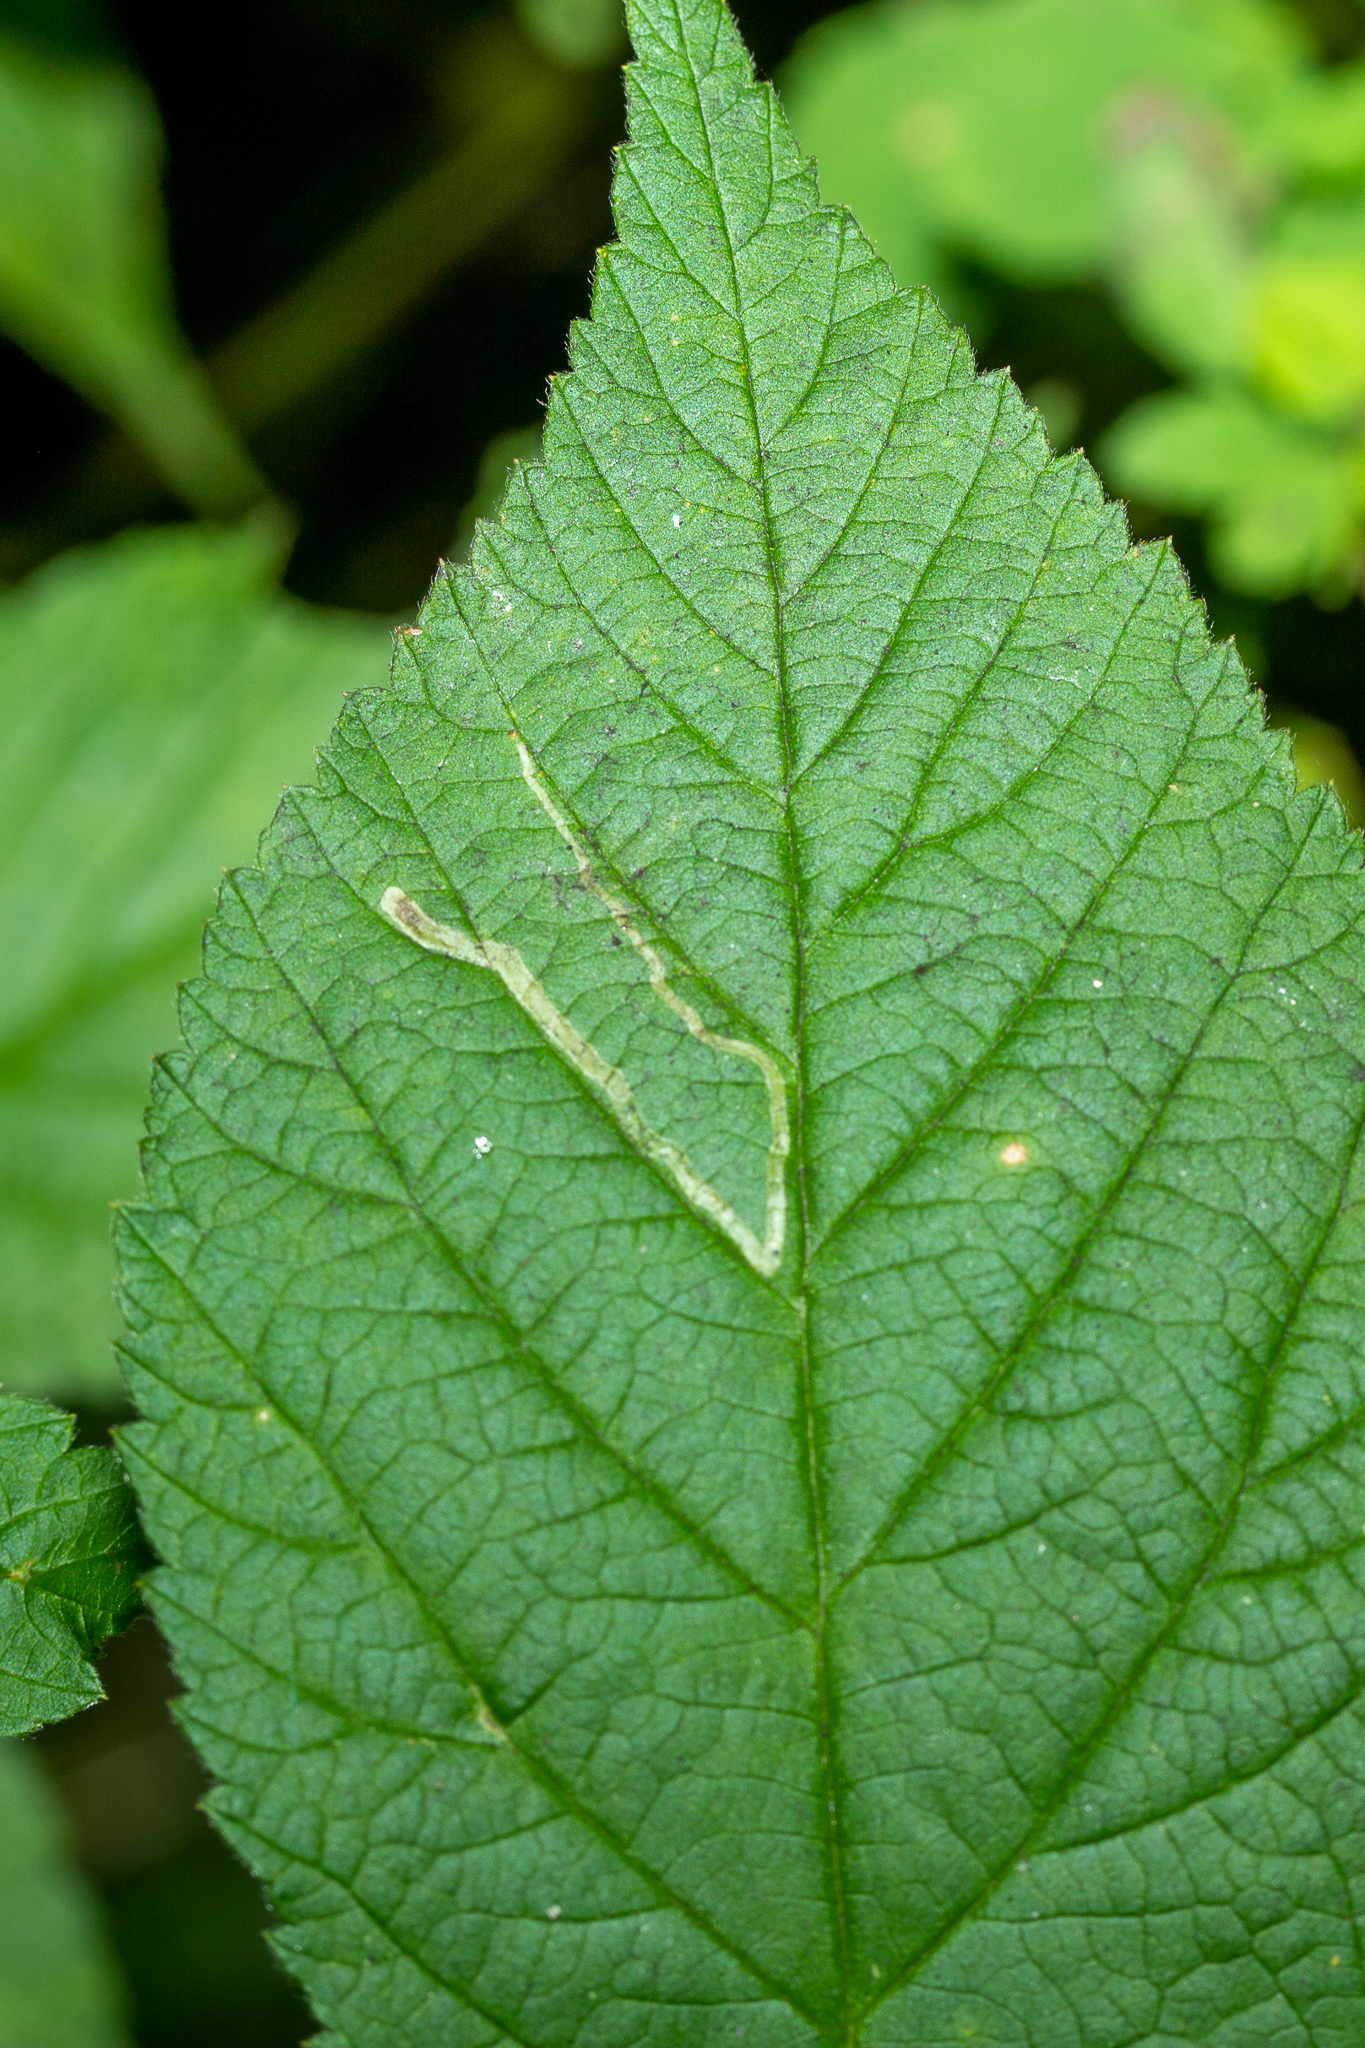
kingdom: Animalia
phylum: Arthropoda
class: Insecta
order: Diptera
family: Agromyzidae
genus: Agromyza
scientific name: Agromyza vockerothi
